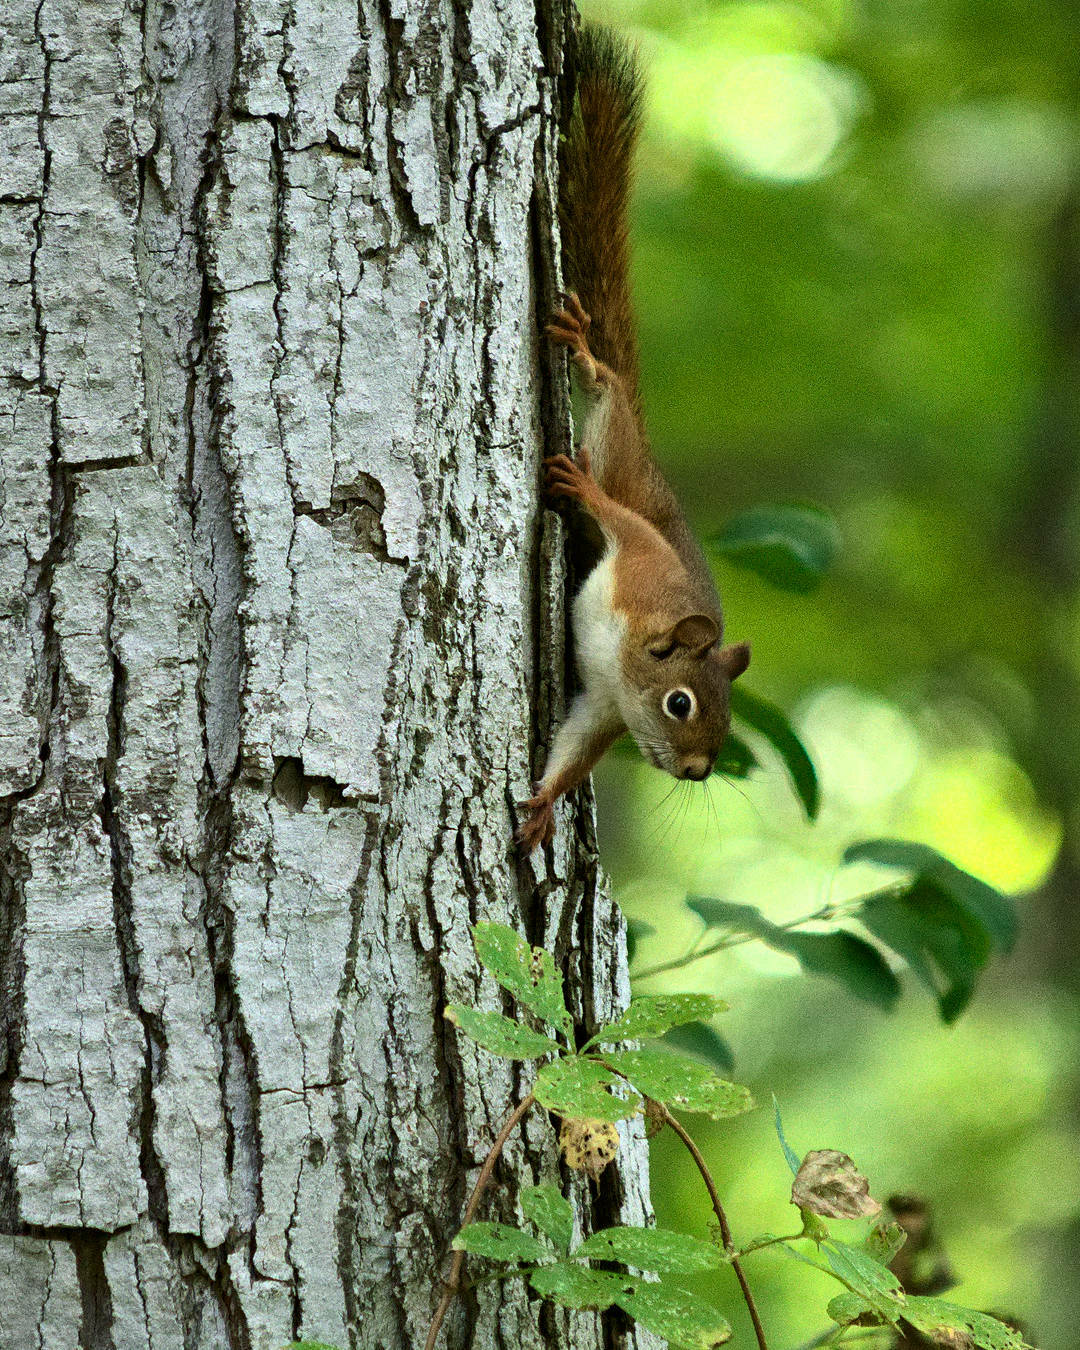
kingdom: Animalia
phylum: Chordata
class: Mammalia
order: Rodentia
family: Sciuridae
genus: Tamiasciurus
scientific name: Tamiasciurus hudsonicus
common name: Red squirrel
